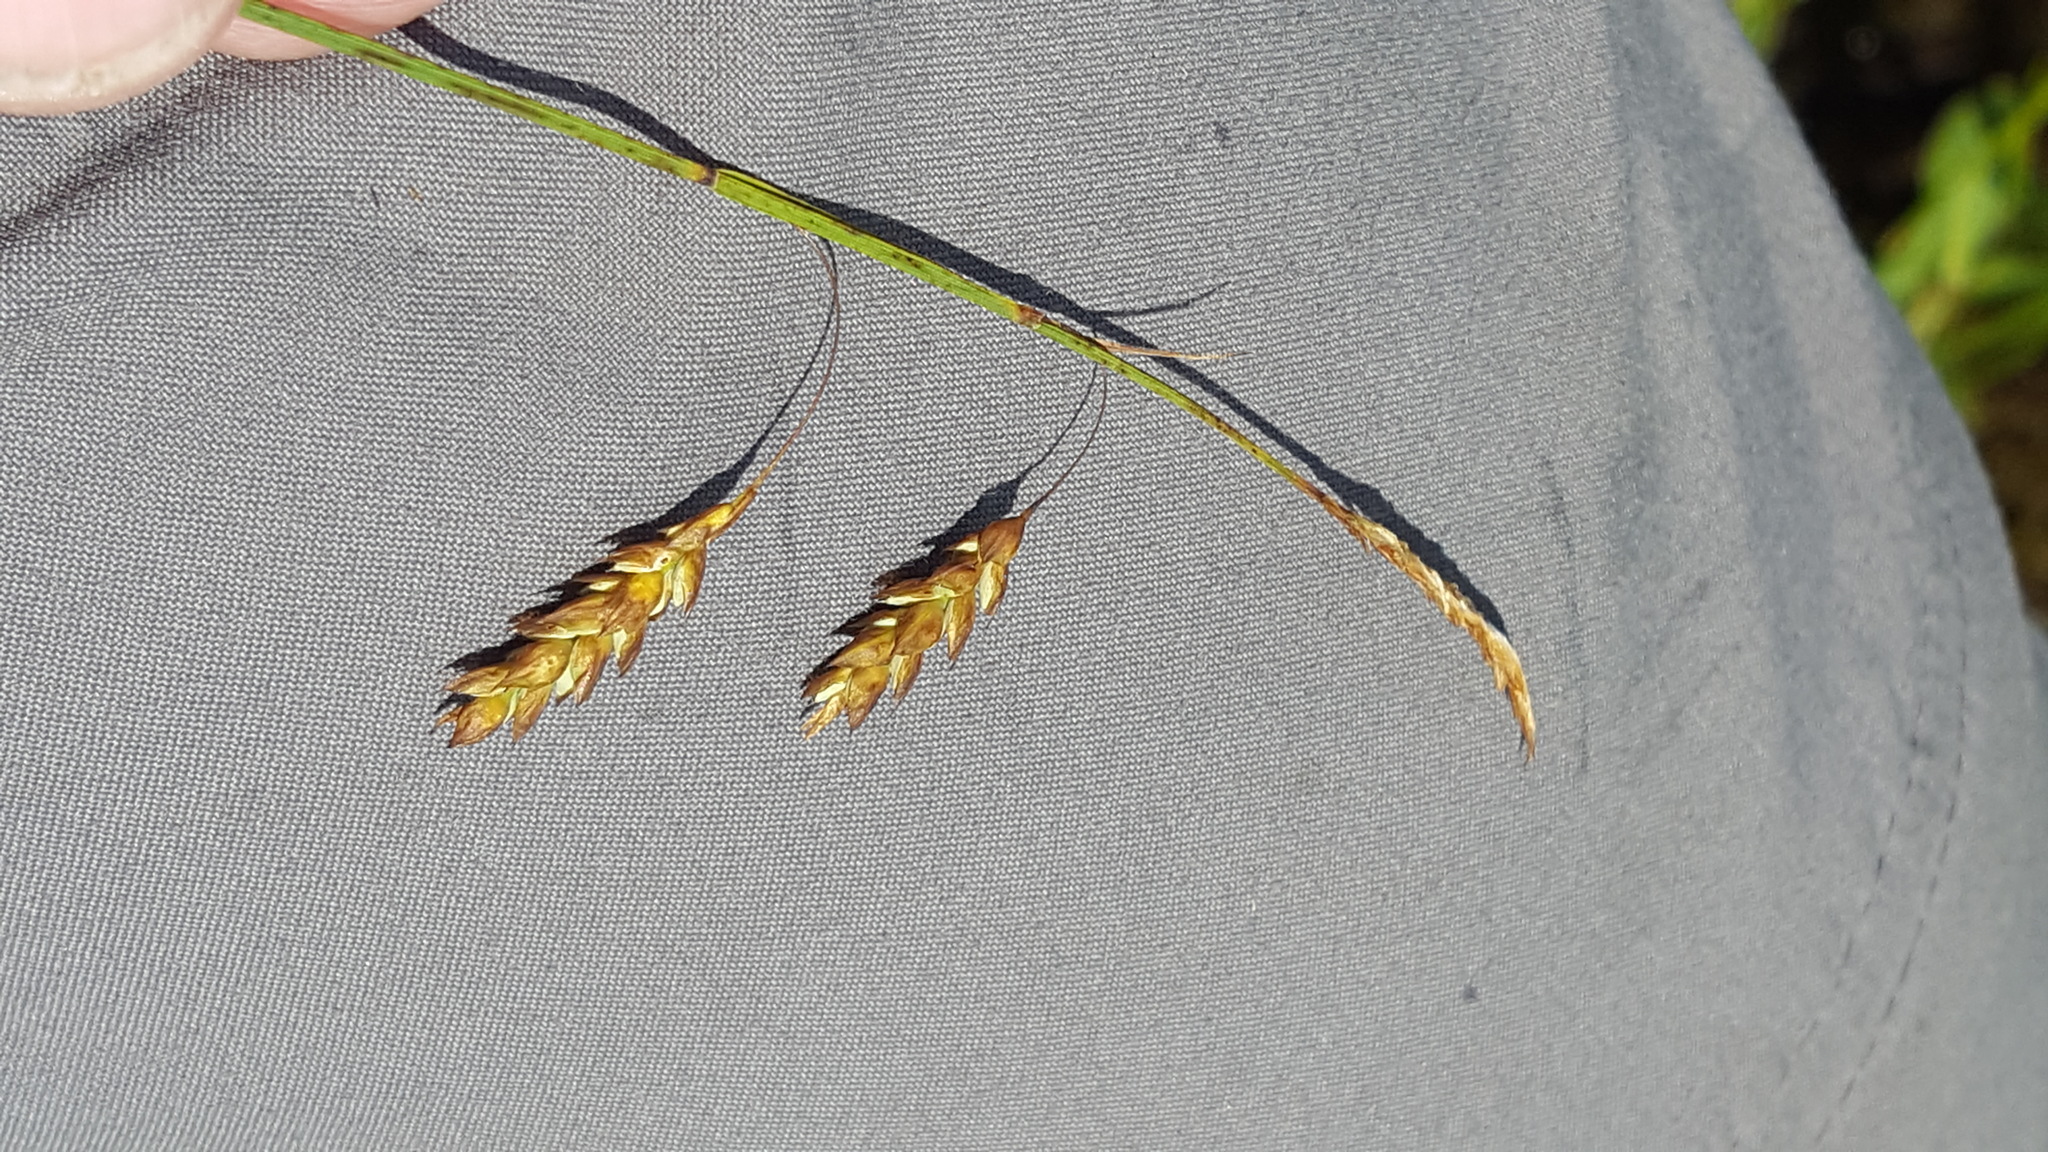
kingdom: Plantae
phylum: Tracheophyta
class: Liliopsida
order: Poales
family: Cyperaceae
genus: Carex
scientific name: Carex limosa
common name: Bog sedge
